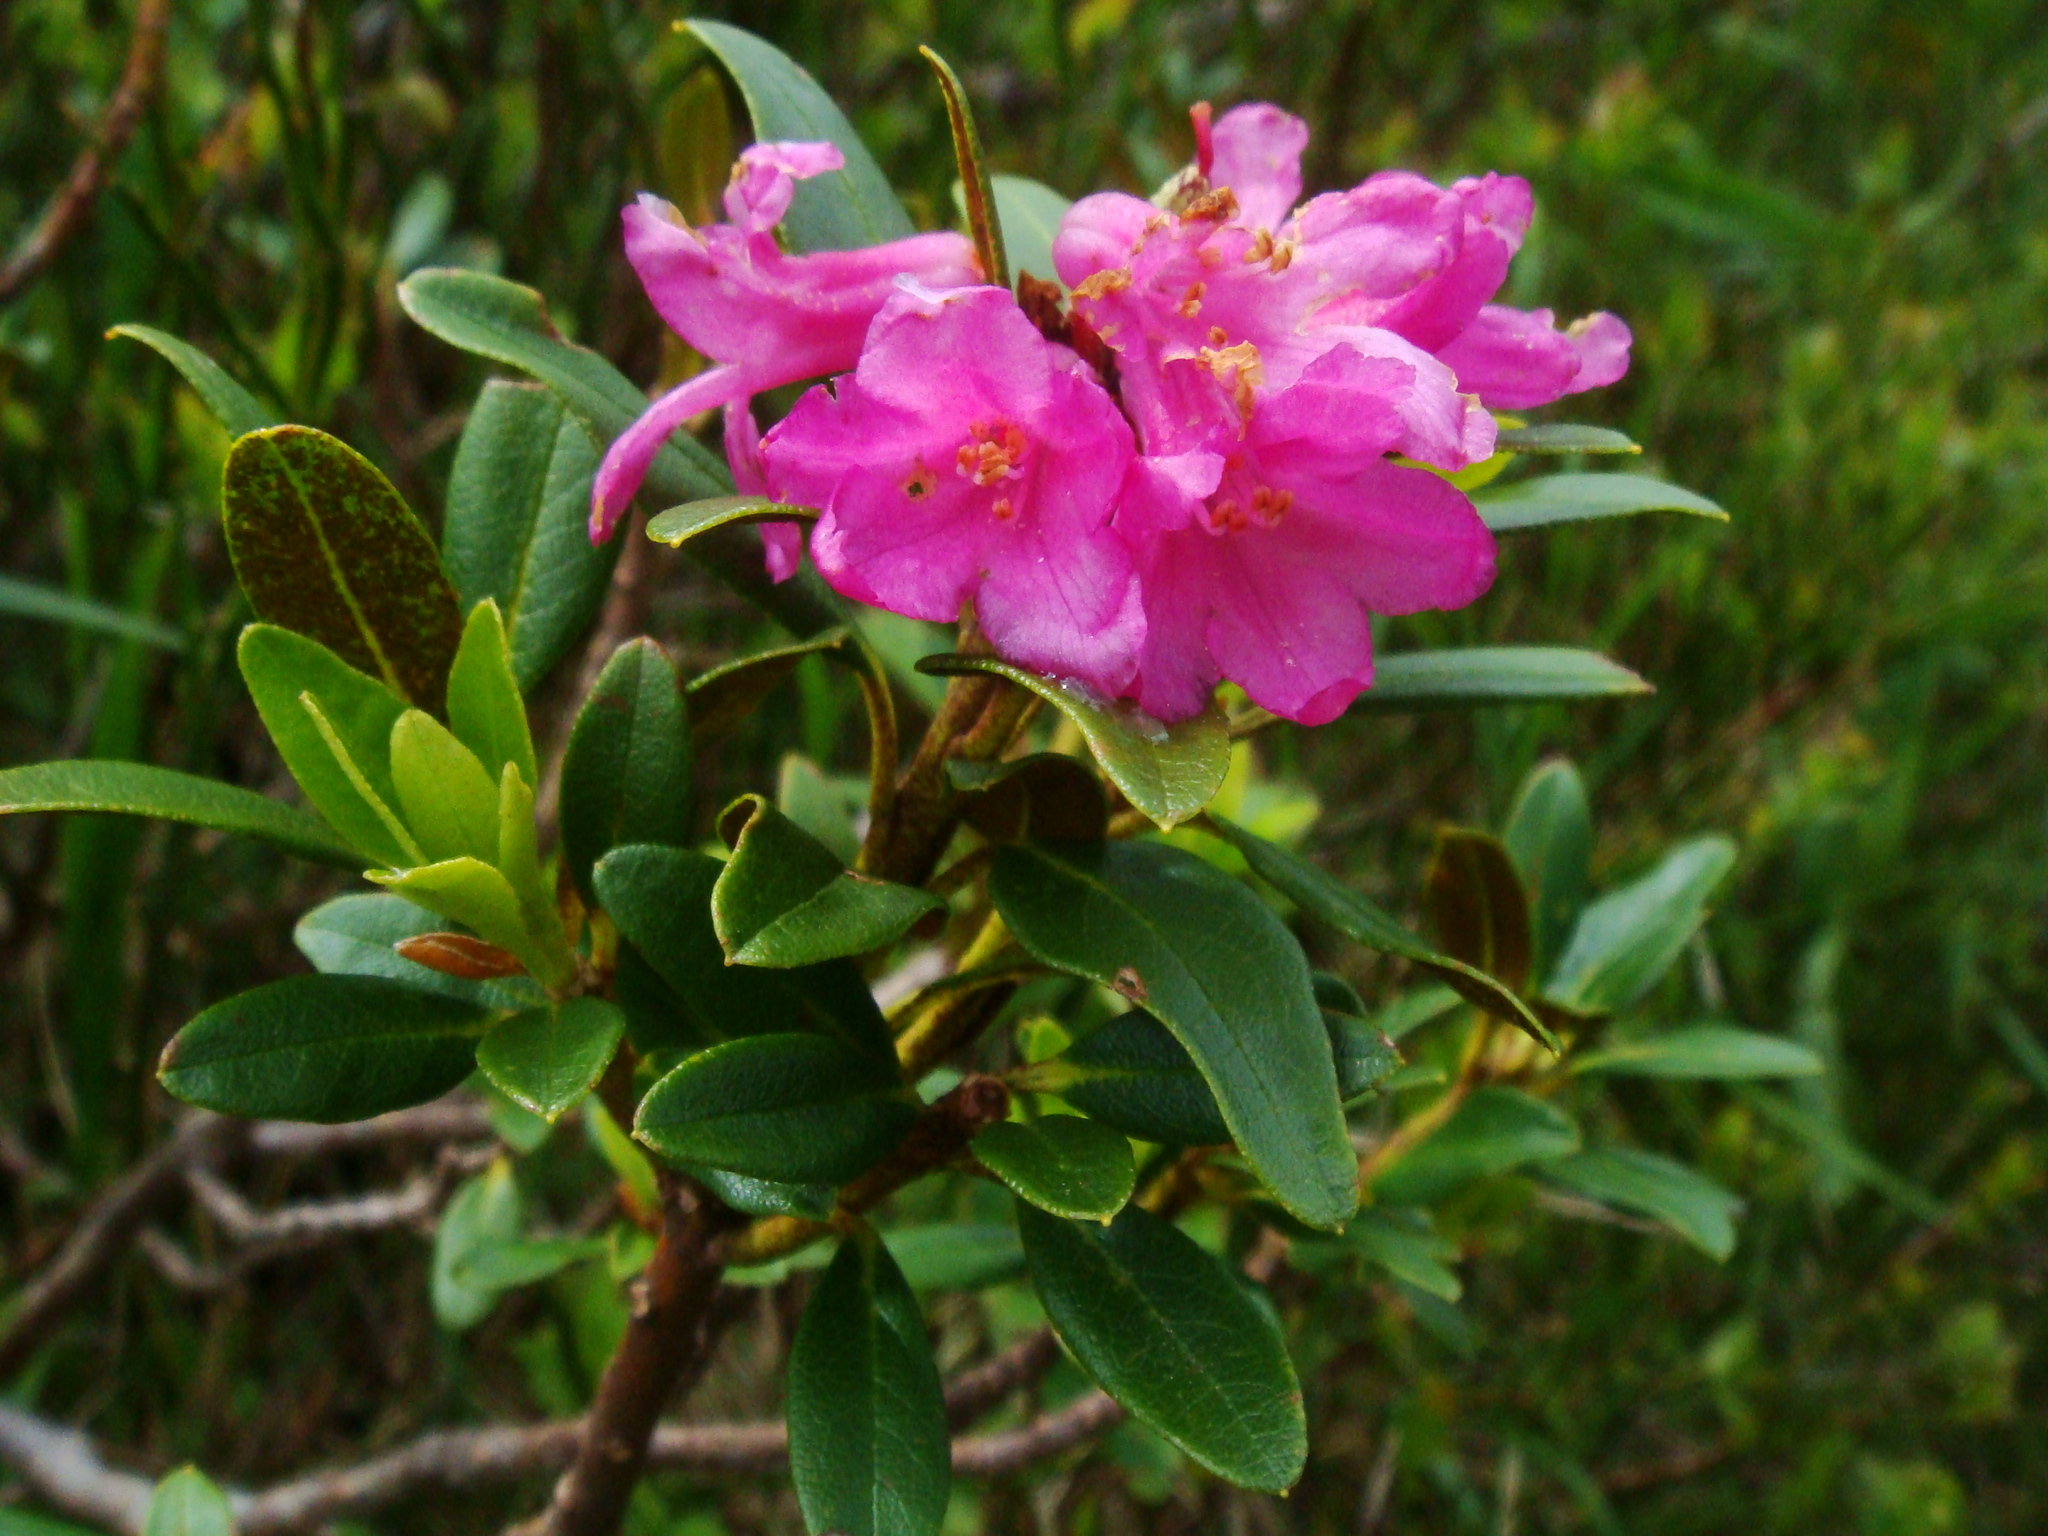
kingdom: Plantae
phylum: Tracheophyta
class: Magnoliopsida
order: Ericales
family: Ericaceae
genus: Rhododendron
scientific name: Rhododendron ferrugineum
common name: Alpenrose
